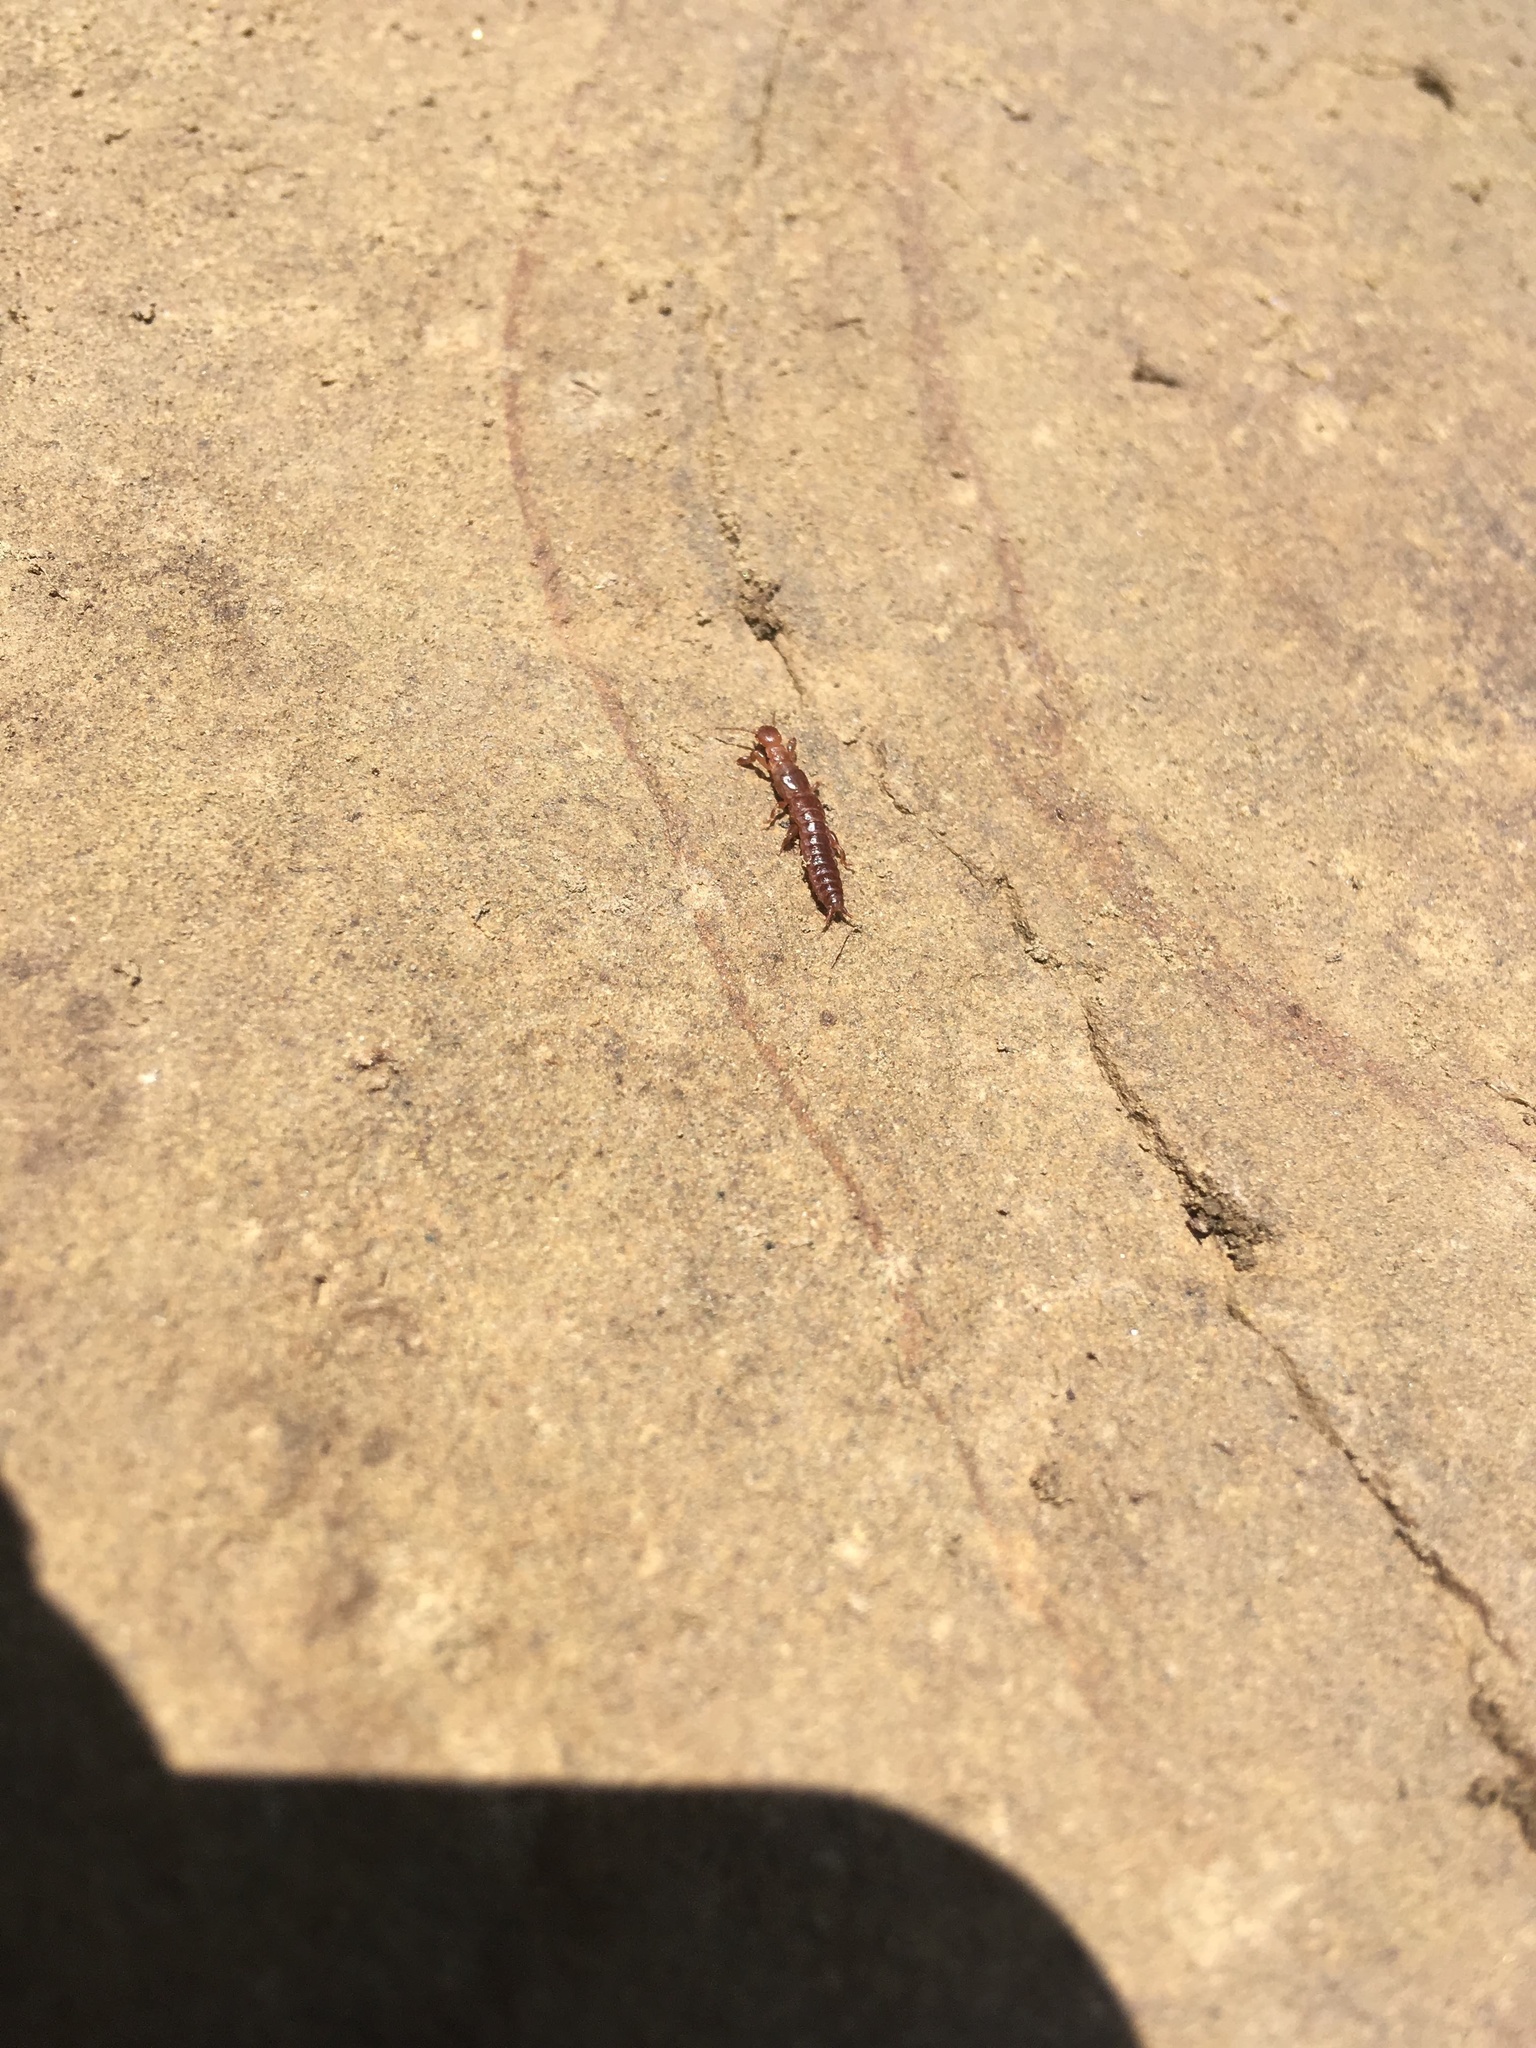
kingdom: Animalia
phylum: Arthropoda
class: Insecta
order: Embioptera
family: Oligotomidae
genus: Haploembia
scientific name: Haploembia solieri
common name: Webspinner
